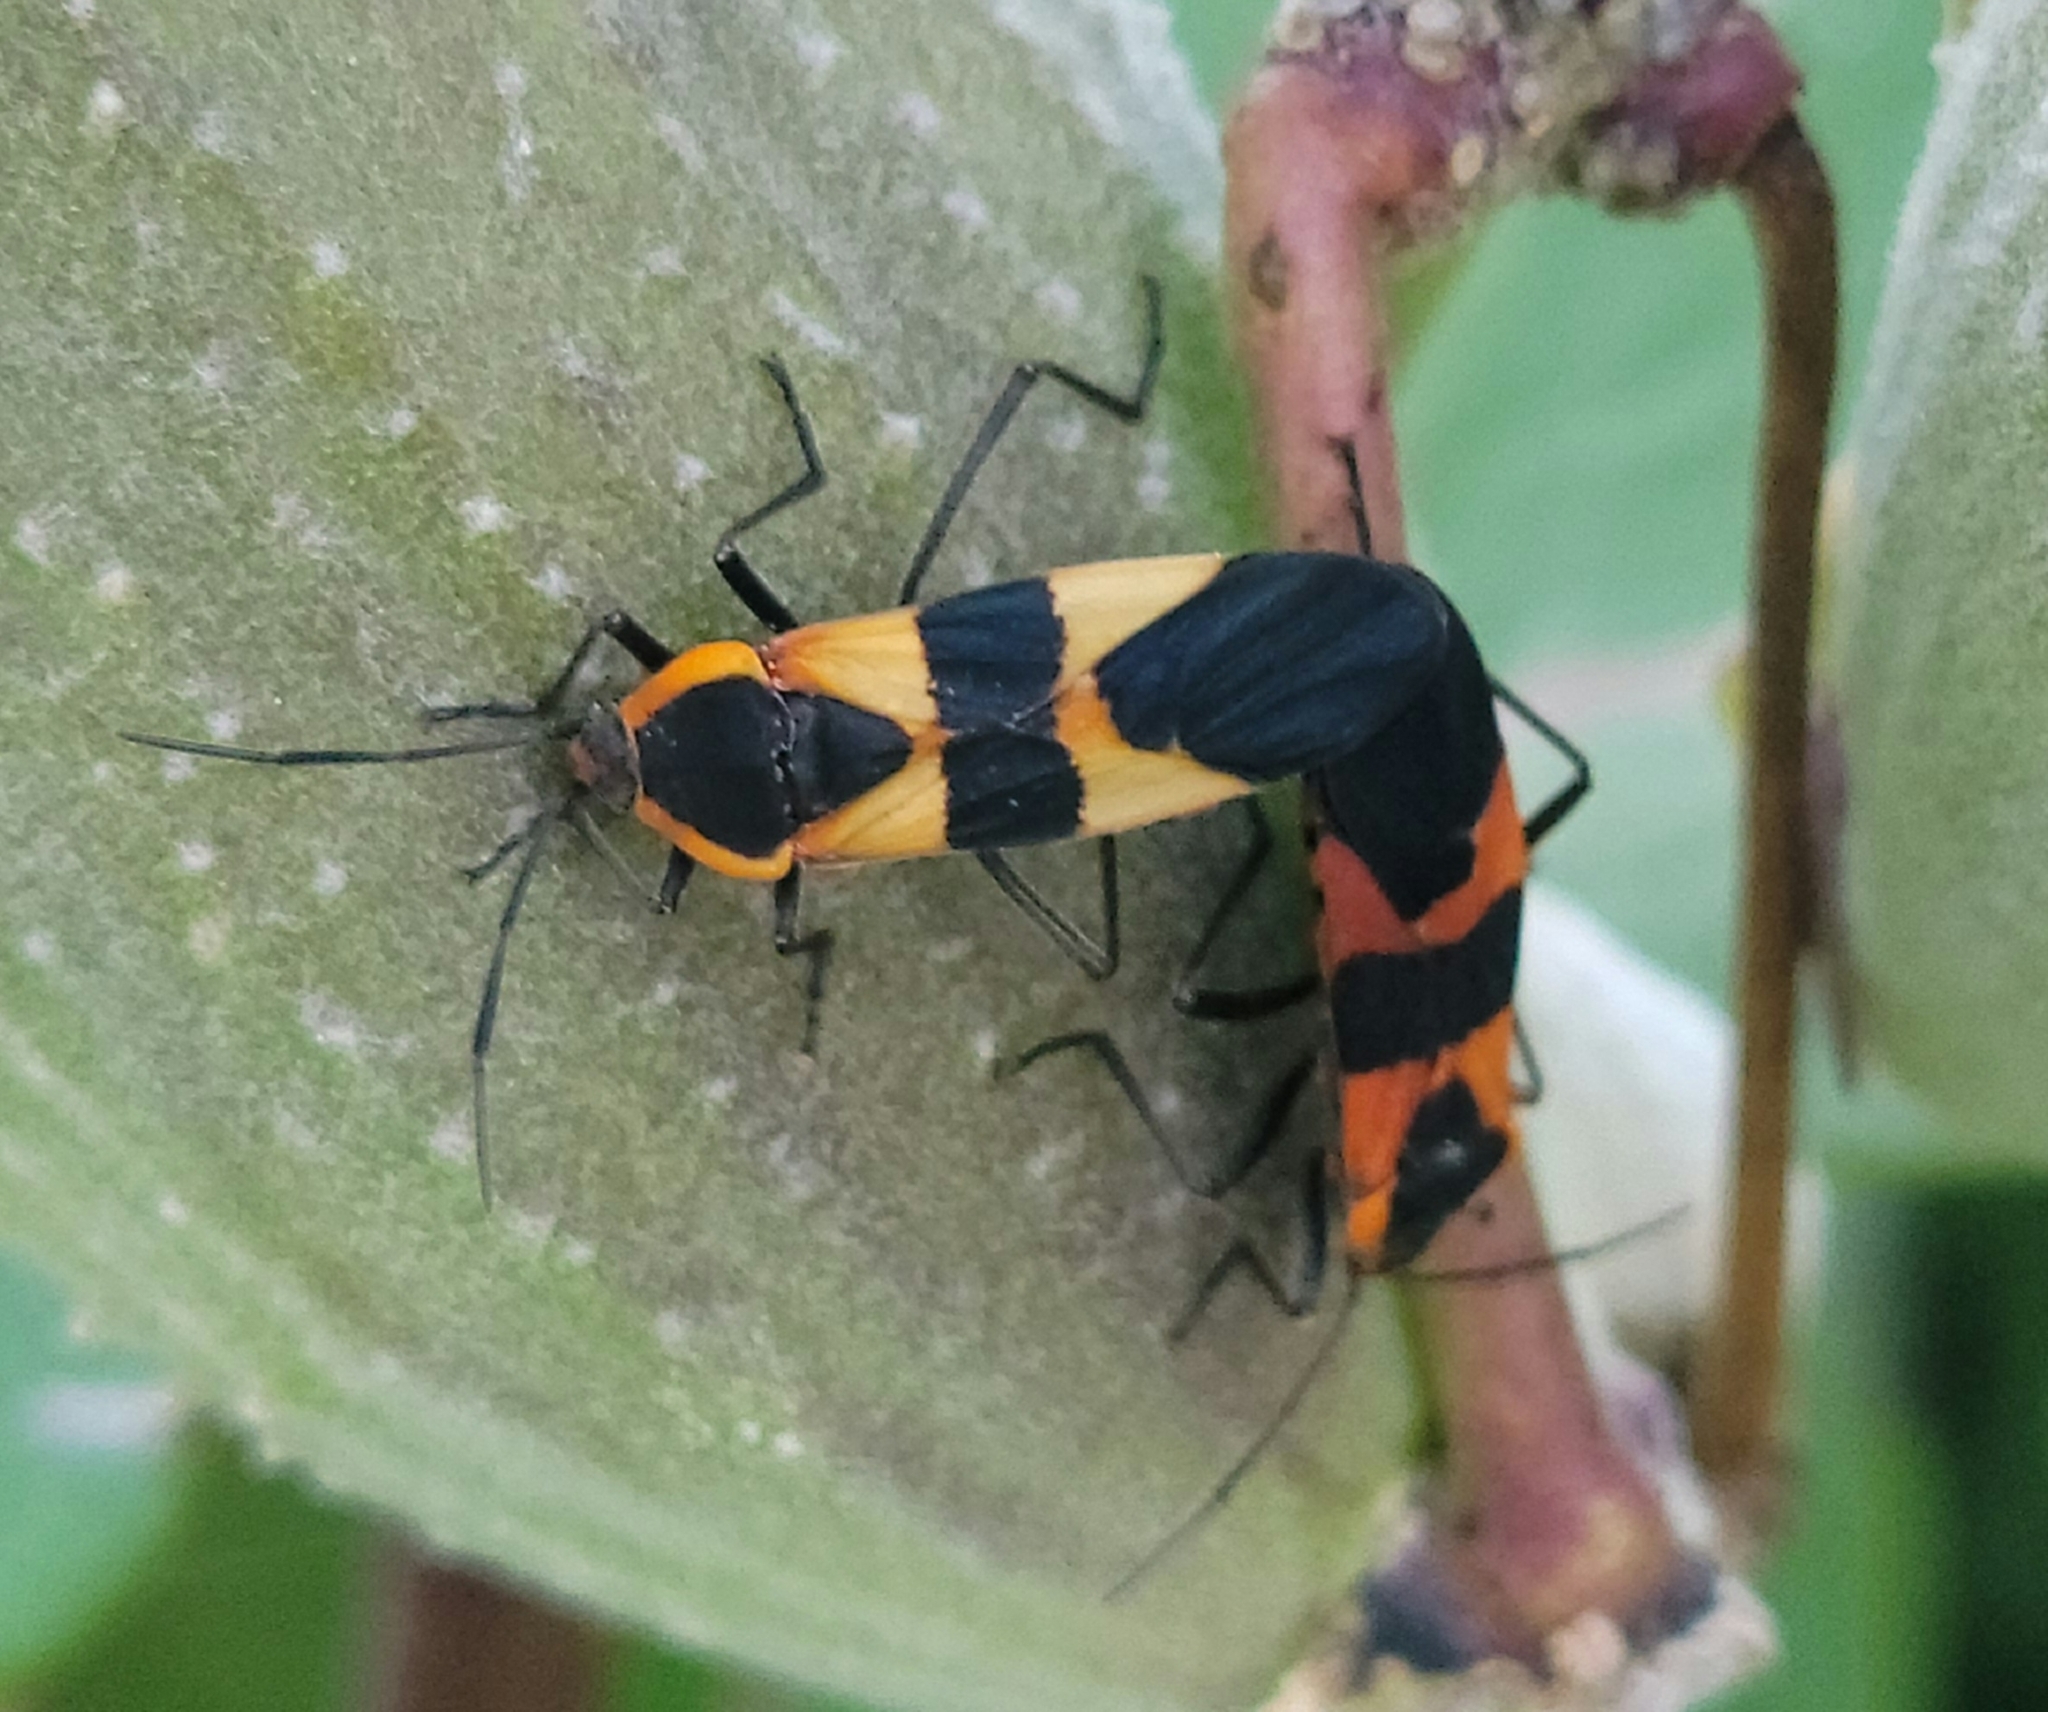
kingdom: Animalia
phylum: Arthropoda
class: Insecta
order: Hemiptera
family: Lygaeidae
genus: Oncopeltus
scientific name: Oncopeltus fasciatus
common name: Large milkweed bug
